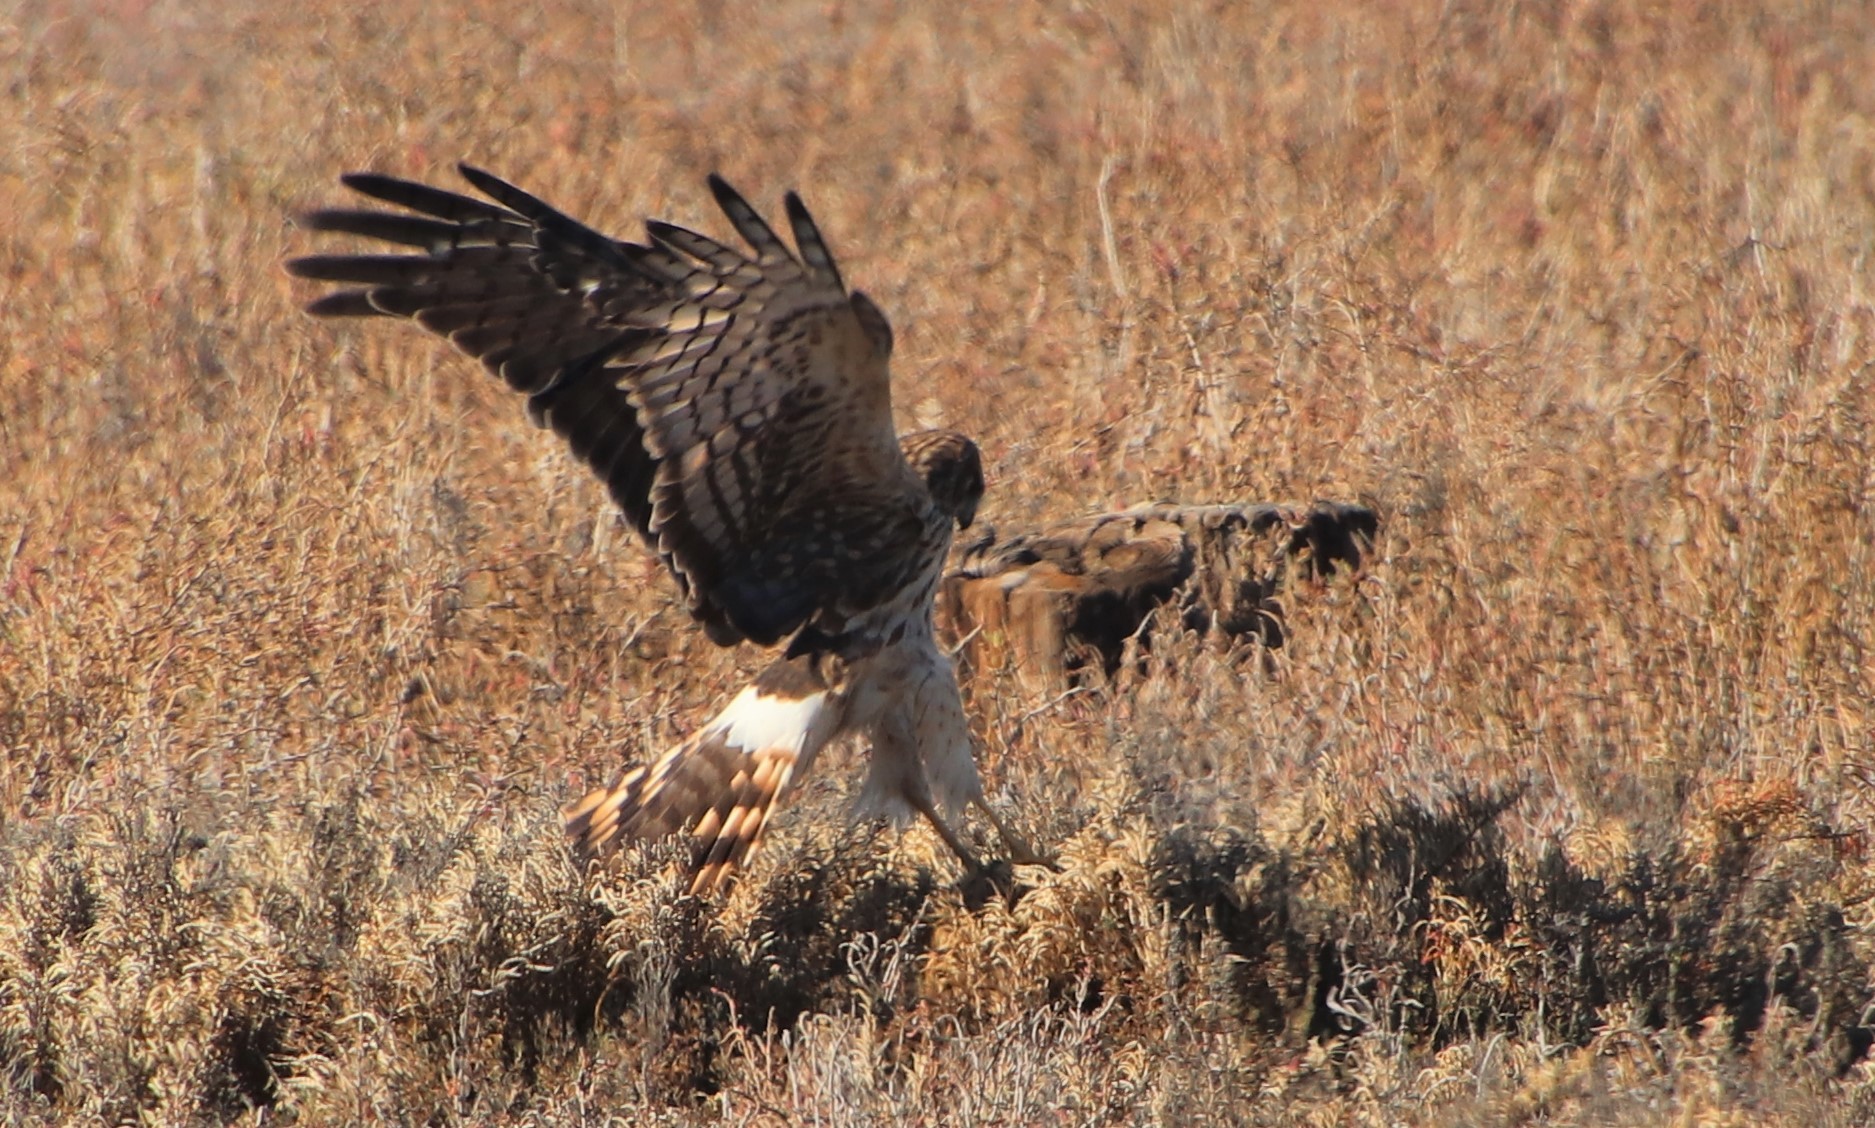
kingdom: Animalia
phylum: Chordata
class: Aves
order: Accipitriformes
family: Accipitridae
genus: Circus
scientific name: Circus cyaneus
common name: Hen harrier
